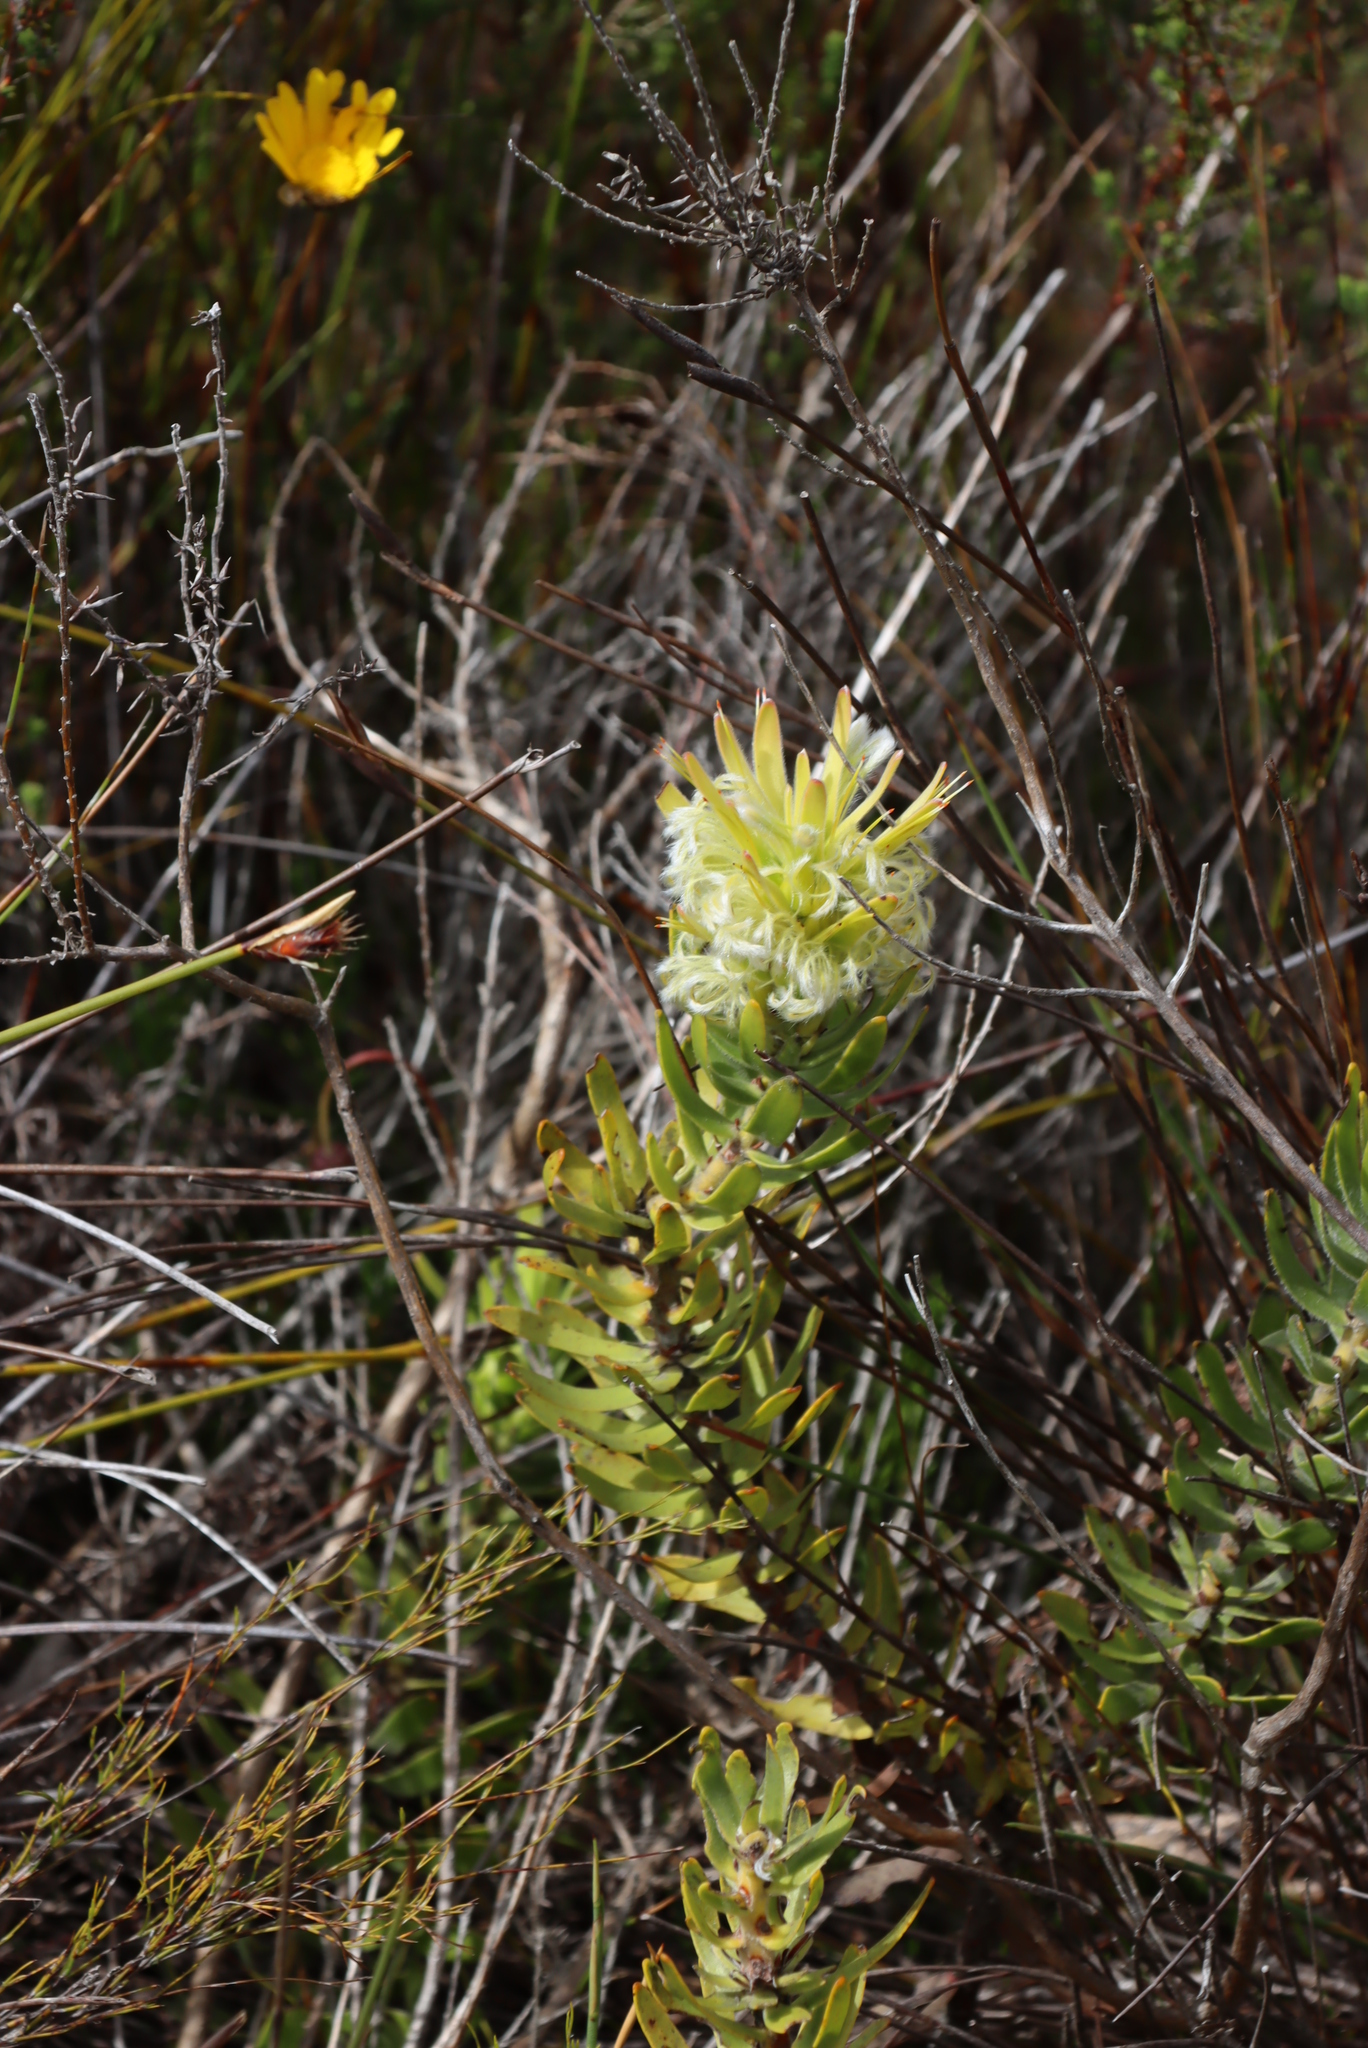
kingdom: Plantae
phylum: Tracheophyta
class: Magnoliopsida
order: Proteales
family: Proteaceae
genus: Mimetes
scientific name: Mimetes cucullatus
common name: Common pagoda
